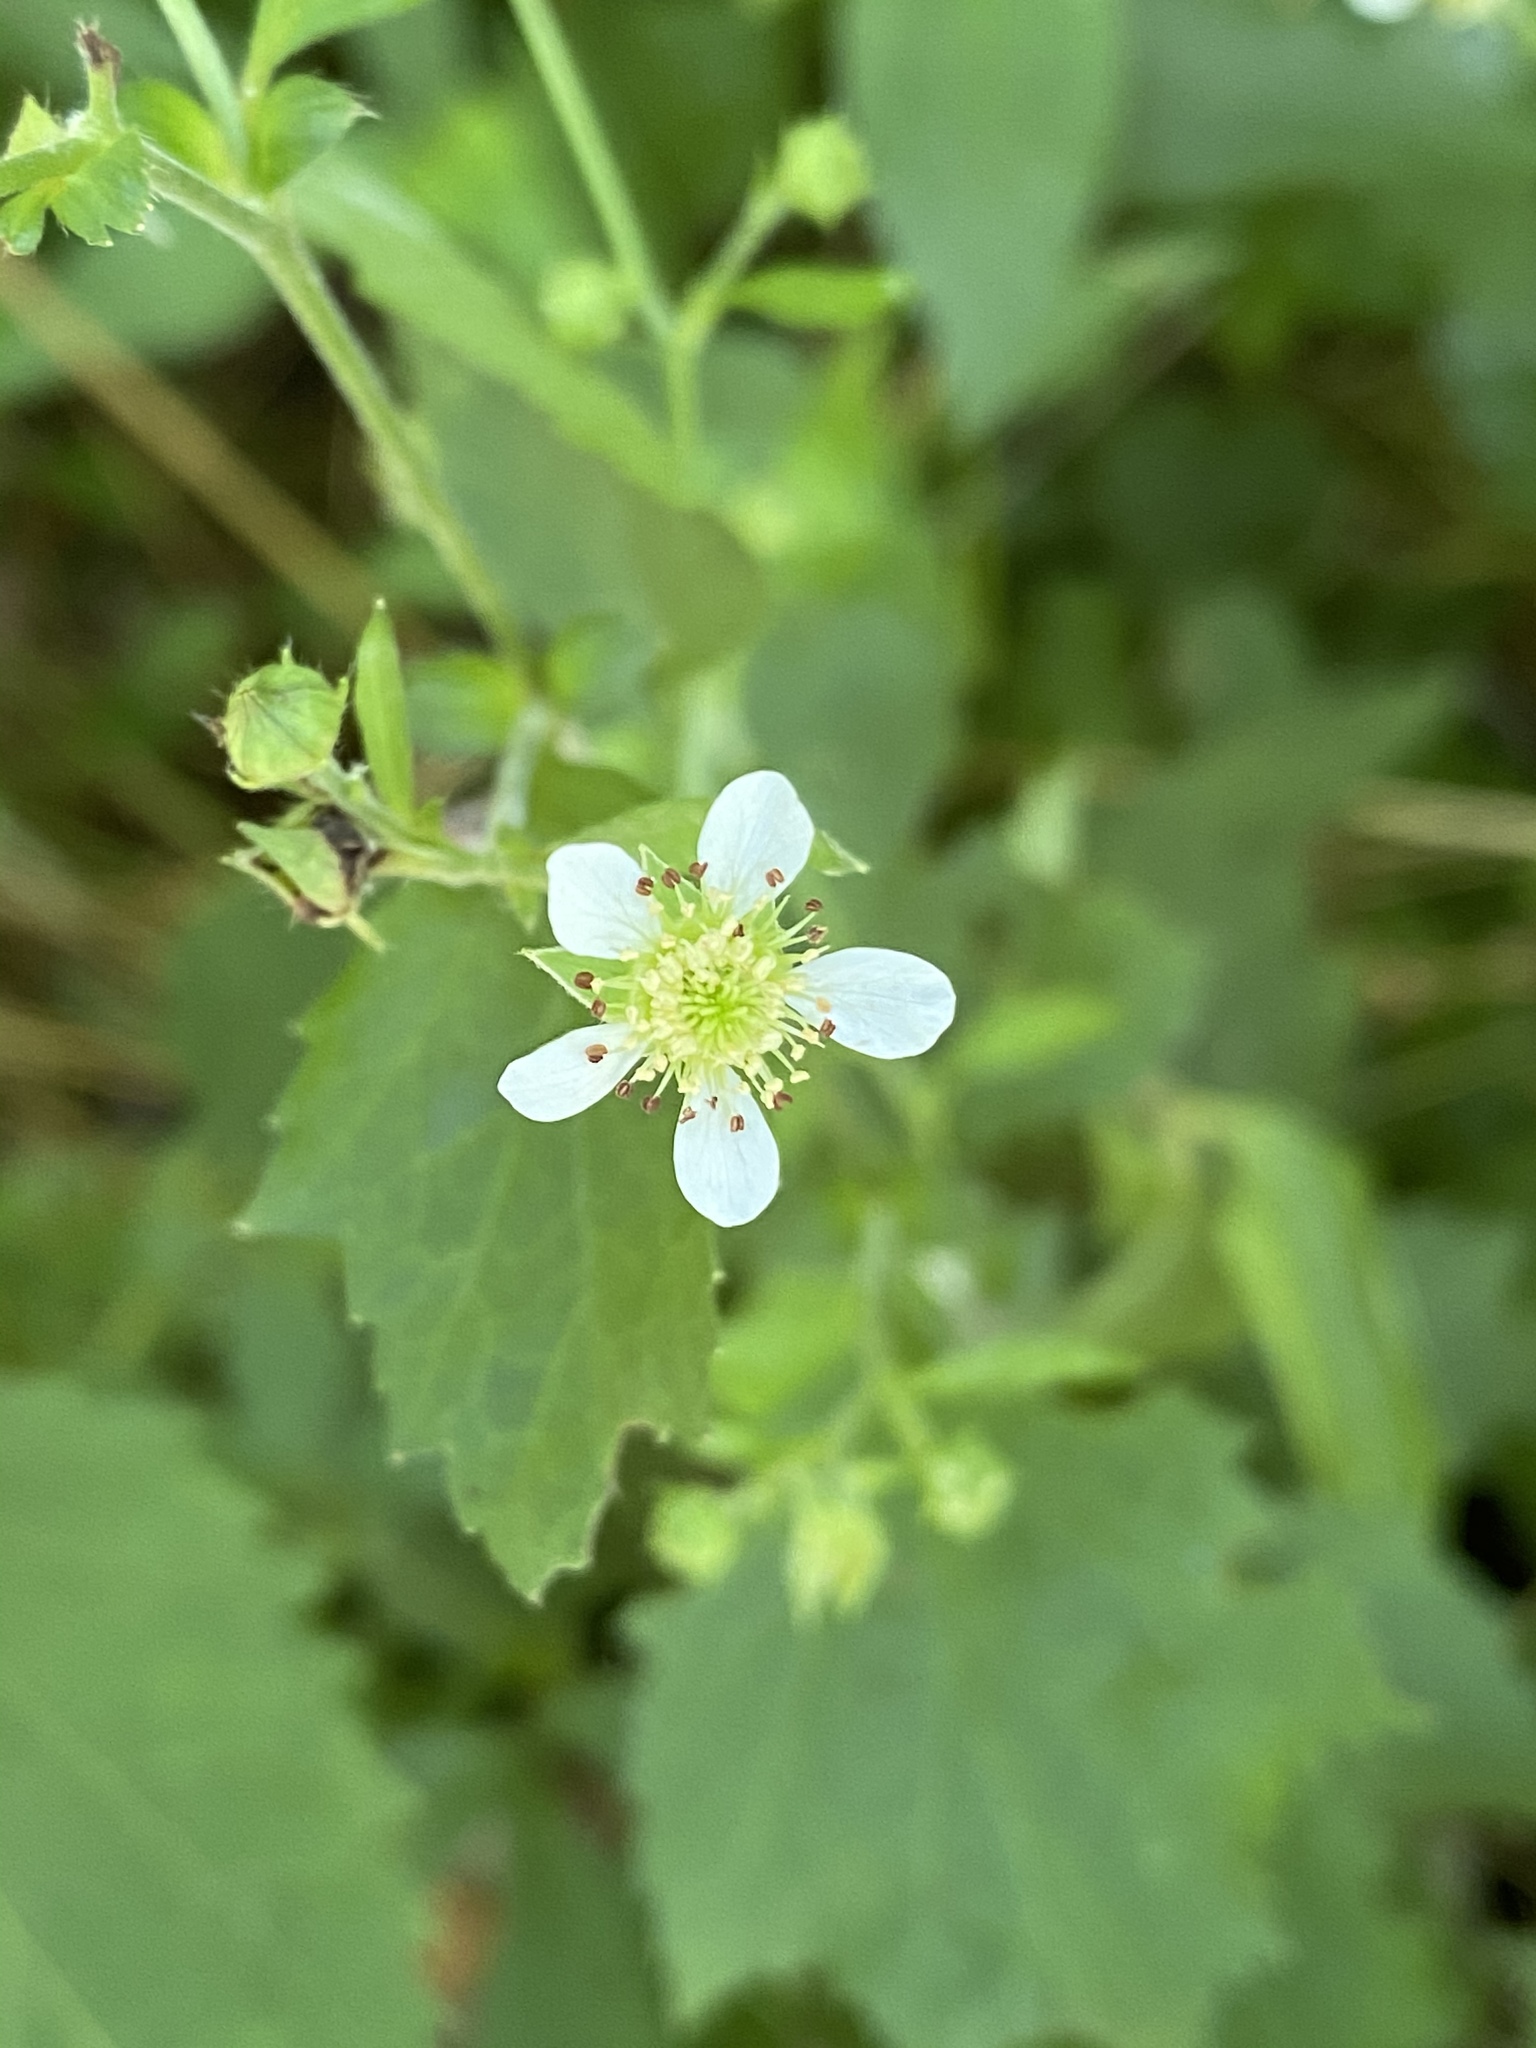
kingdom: Plantae
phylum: Tracheophyta
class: Magnoliopsida
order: Rosales
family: Rosaceae
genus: Geum
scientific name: Geum canadense
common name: White avens
